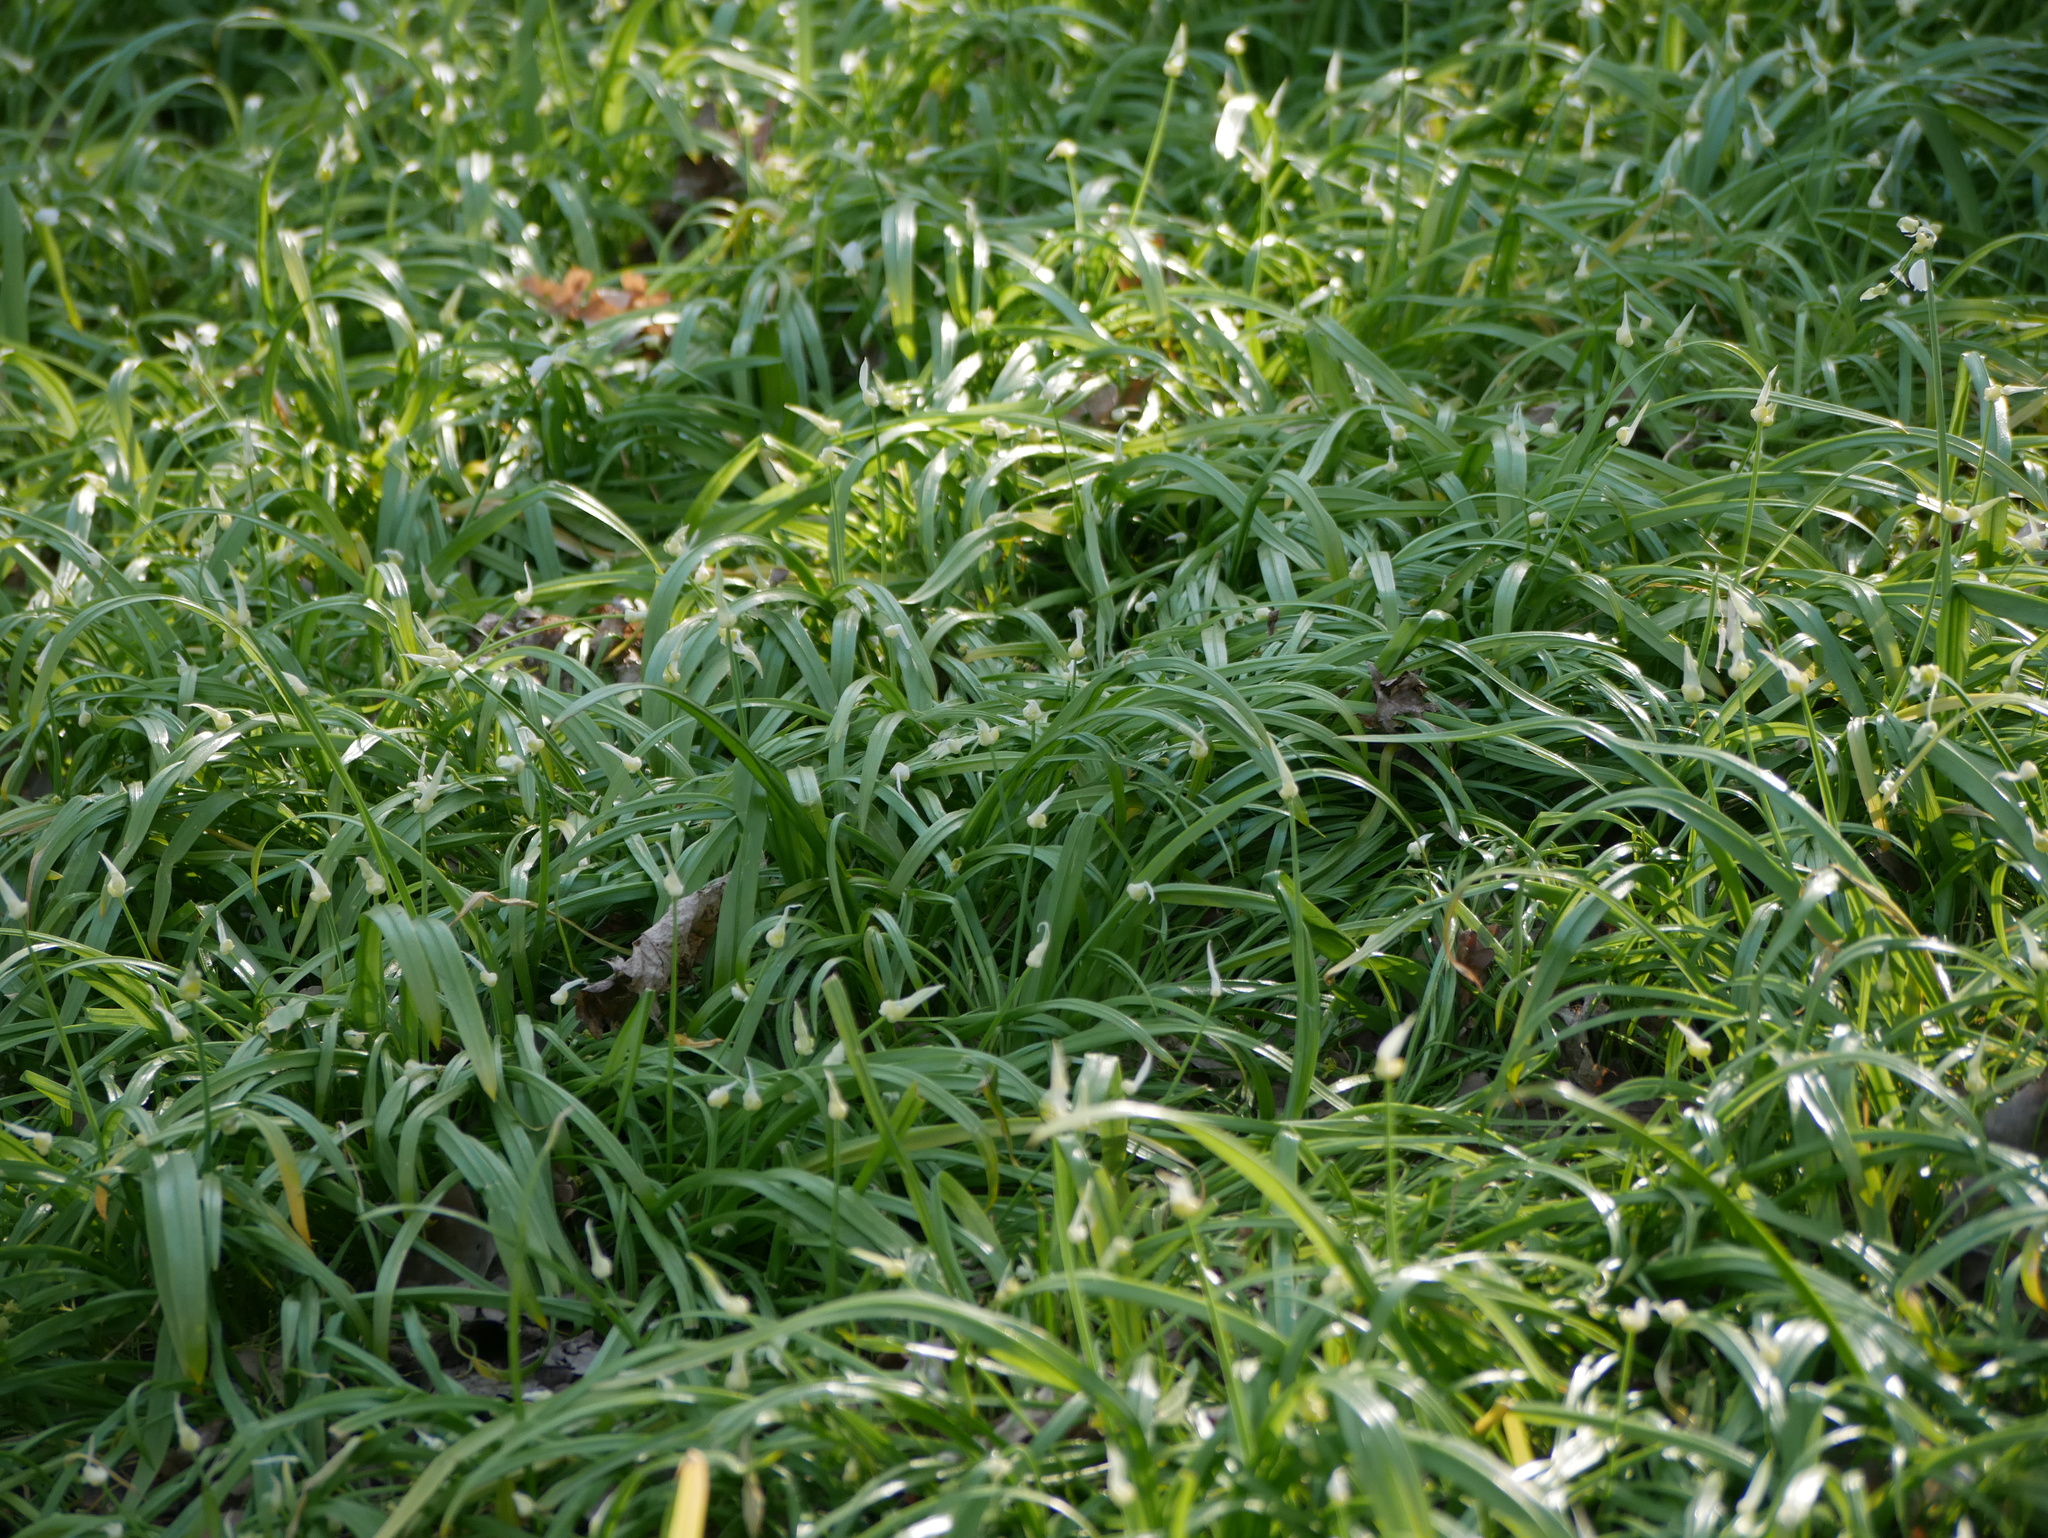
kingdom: Plantae
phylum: Tracheophyta
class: Liliopsida
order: Asparagales
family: Amaryllidaceae
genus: Allium
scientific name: Allium paradoxum
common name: Few-flowered garlic
